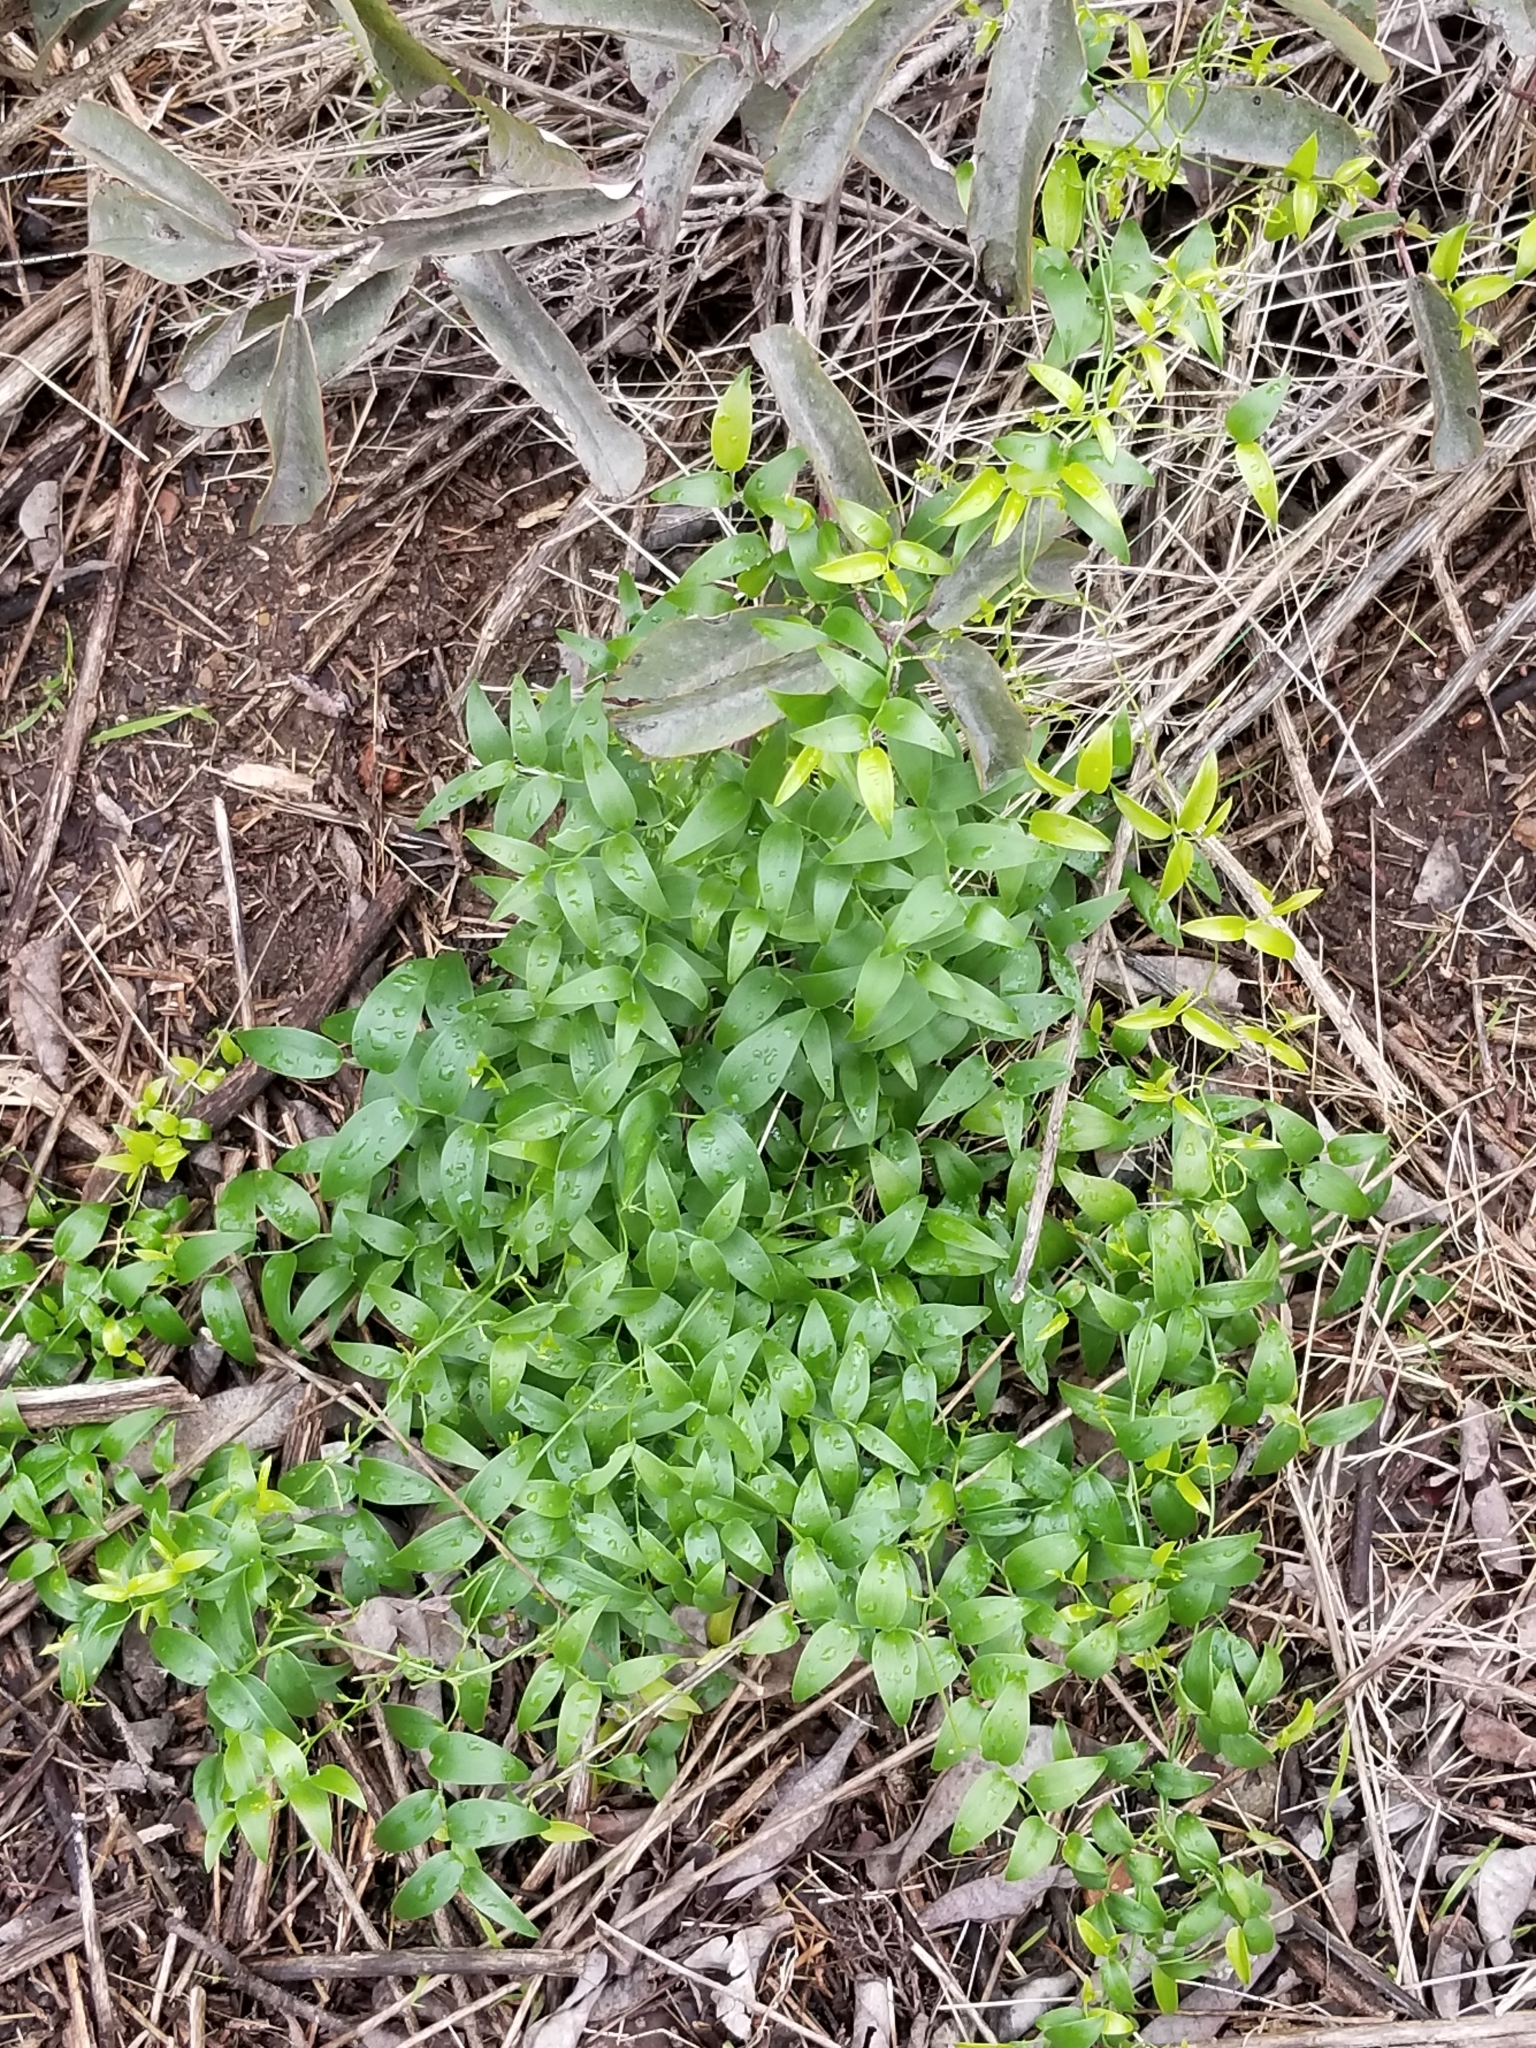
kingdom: Plantae
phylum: Tracheophyta
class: Liliopsida
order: Asparagales
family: Asparagaceae
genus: Asparagus
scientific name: Asparagus asparagoides
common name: African asparagus fern
